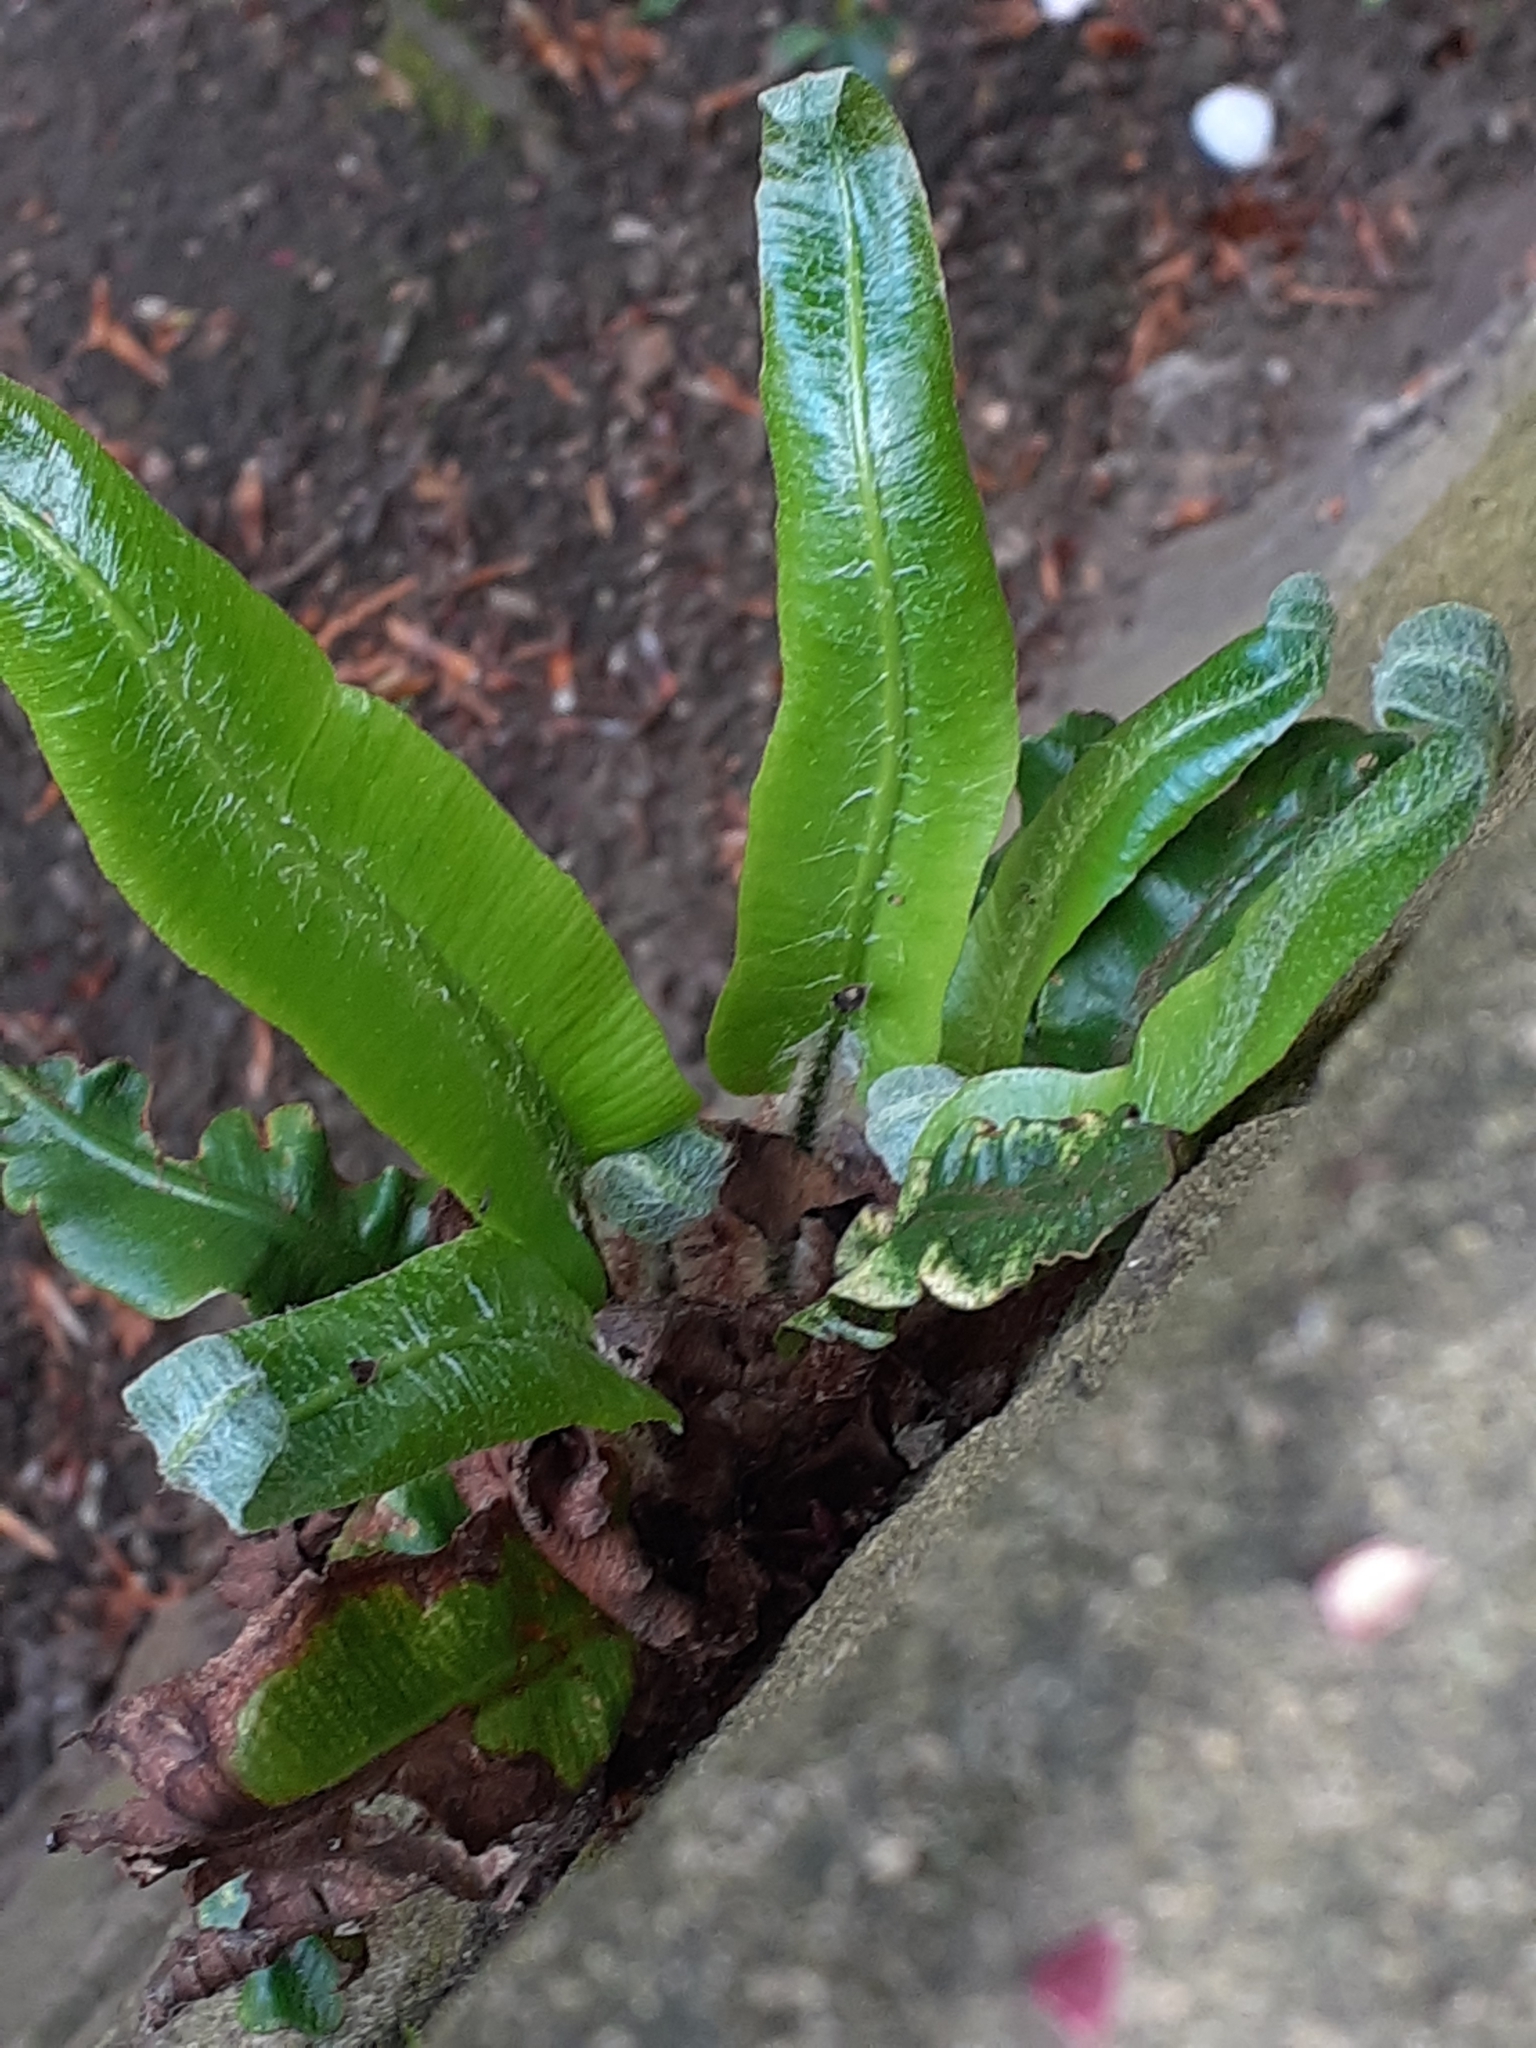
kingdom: Plantae
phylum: Tracheophyta
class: Polypodiopsida
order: Polypodiales
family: Aspleniaceae
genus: Asplenium
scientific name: Asplenium scolopendrium
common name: Hart's-tongue fern
